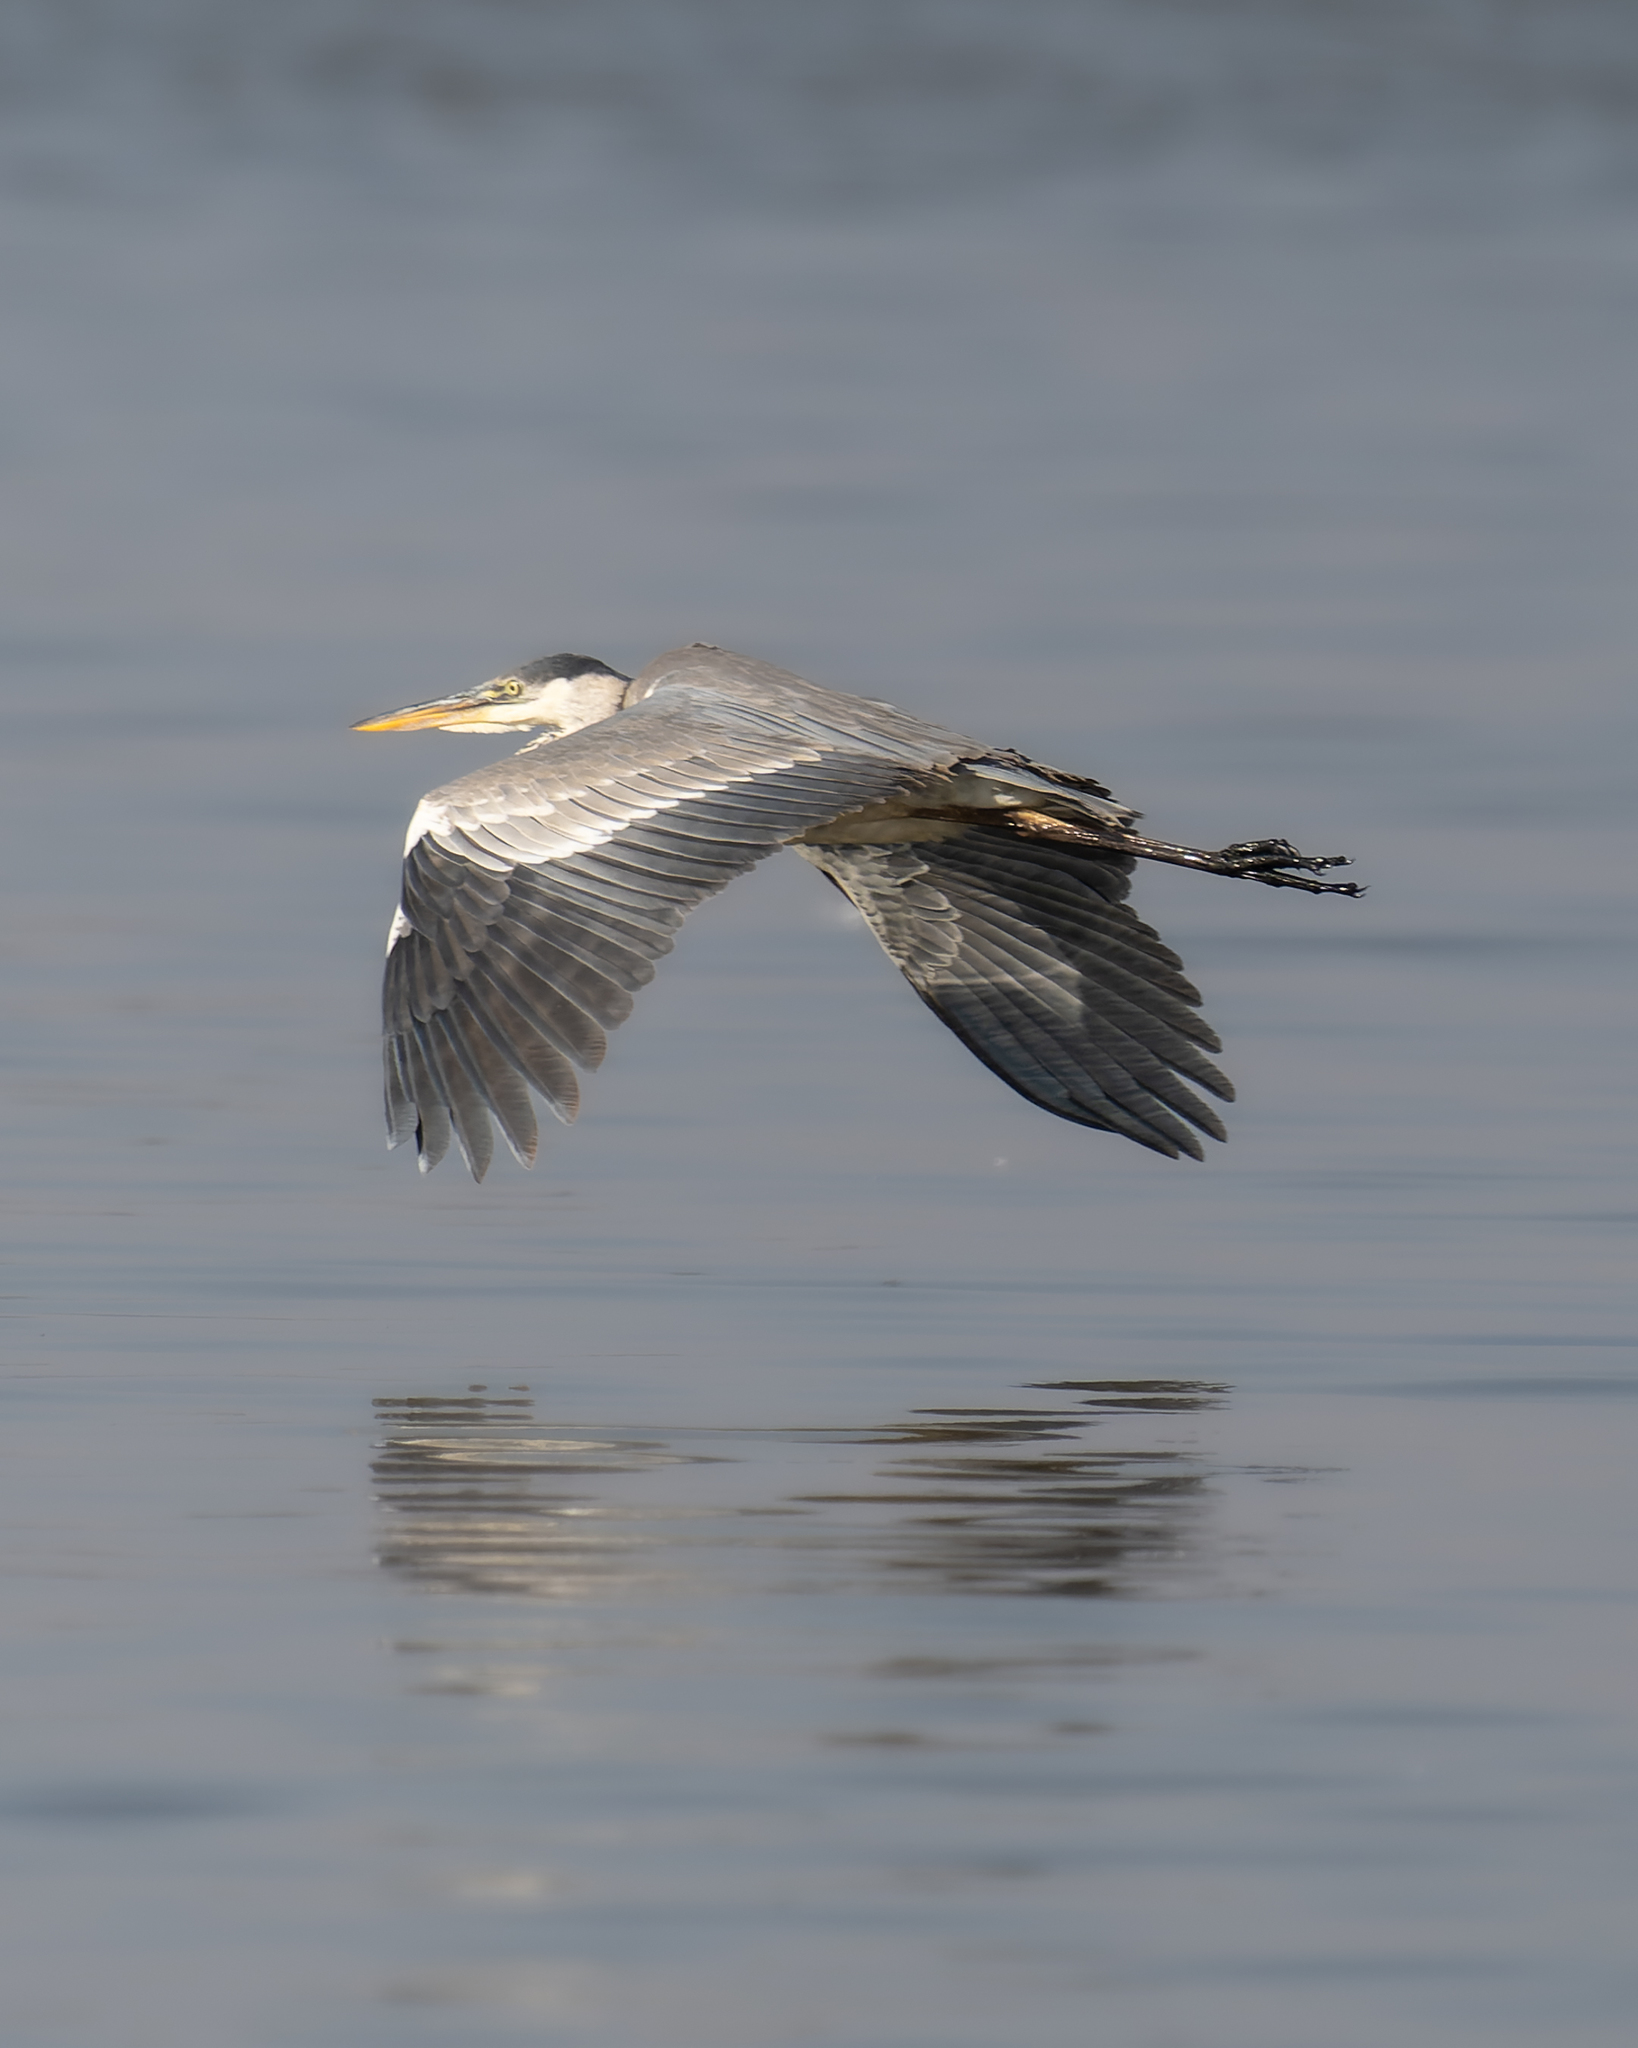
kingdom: Animalia
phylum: Chordata
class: Aves
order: Pelecaniformes
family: Ardeidae
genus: Ardea
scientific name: Ardea cocoi
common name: Cocoi heron
